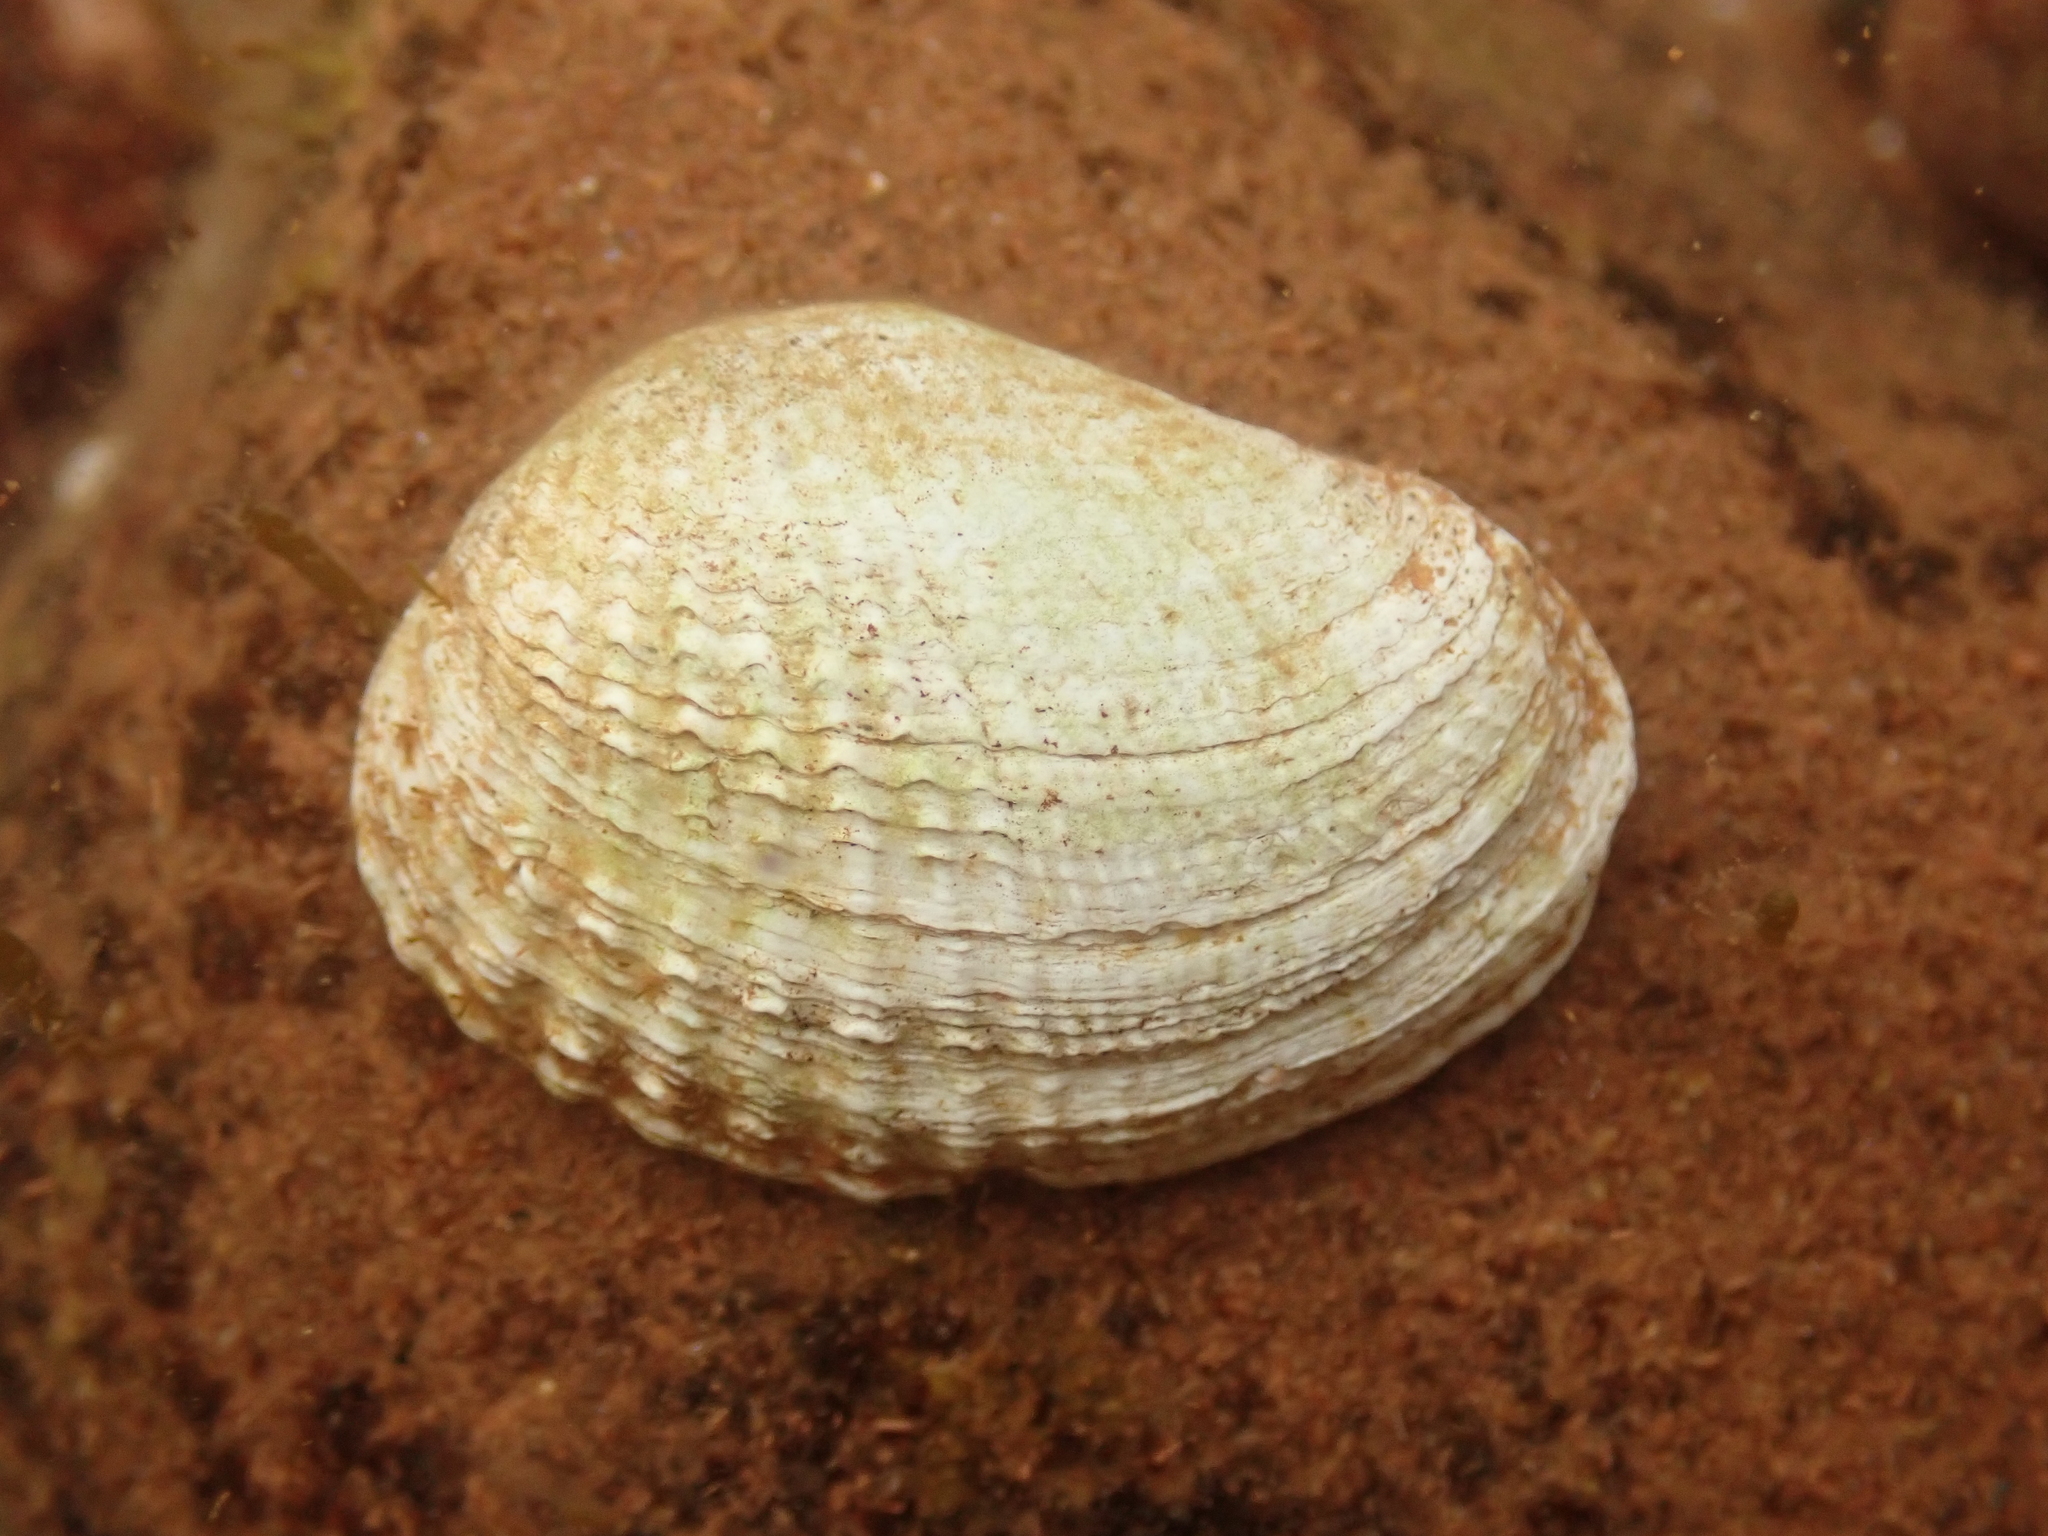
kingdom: Animalia
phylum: Mollusca
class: Bivalvia
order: Venerida
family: Veneridae
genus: Petricolaria
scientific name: Petricolaria pholadiformis
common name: American piddock
